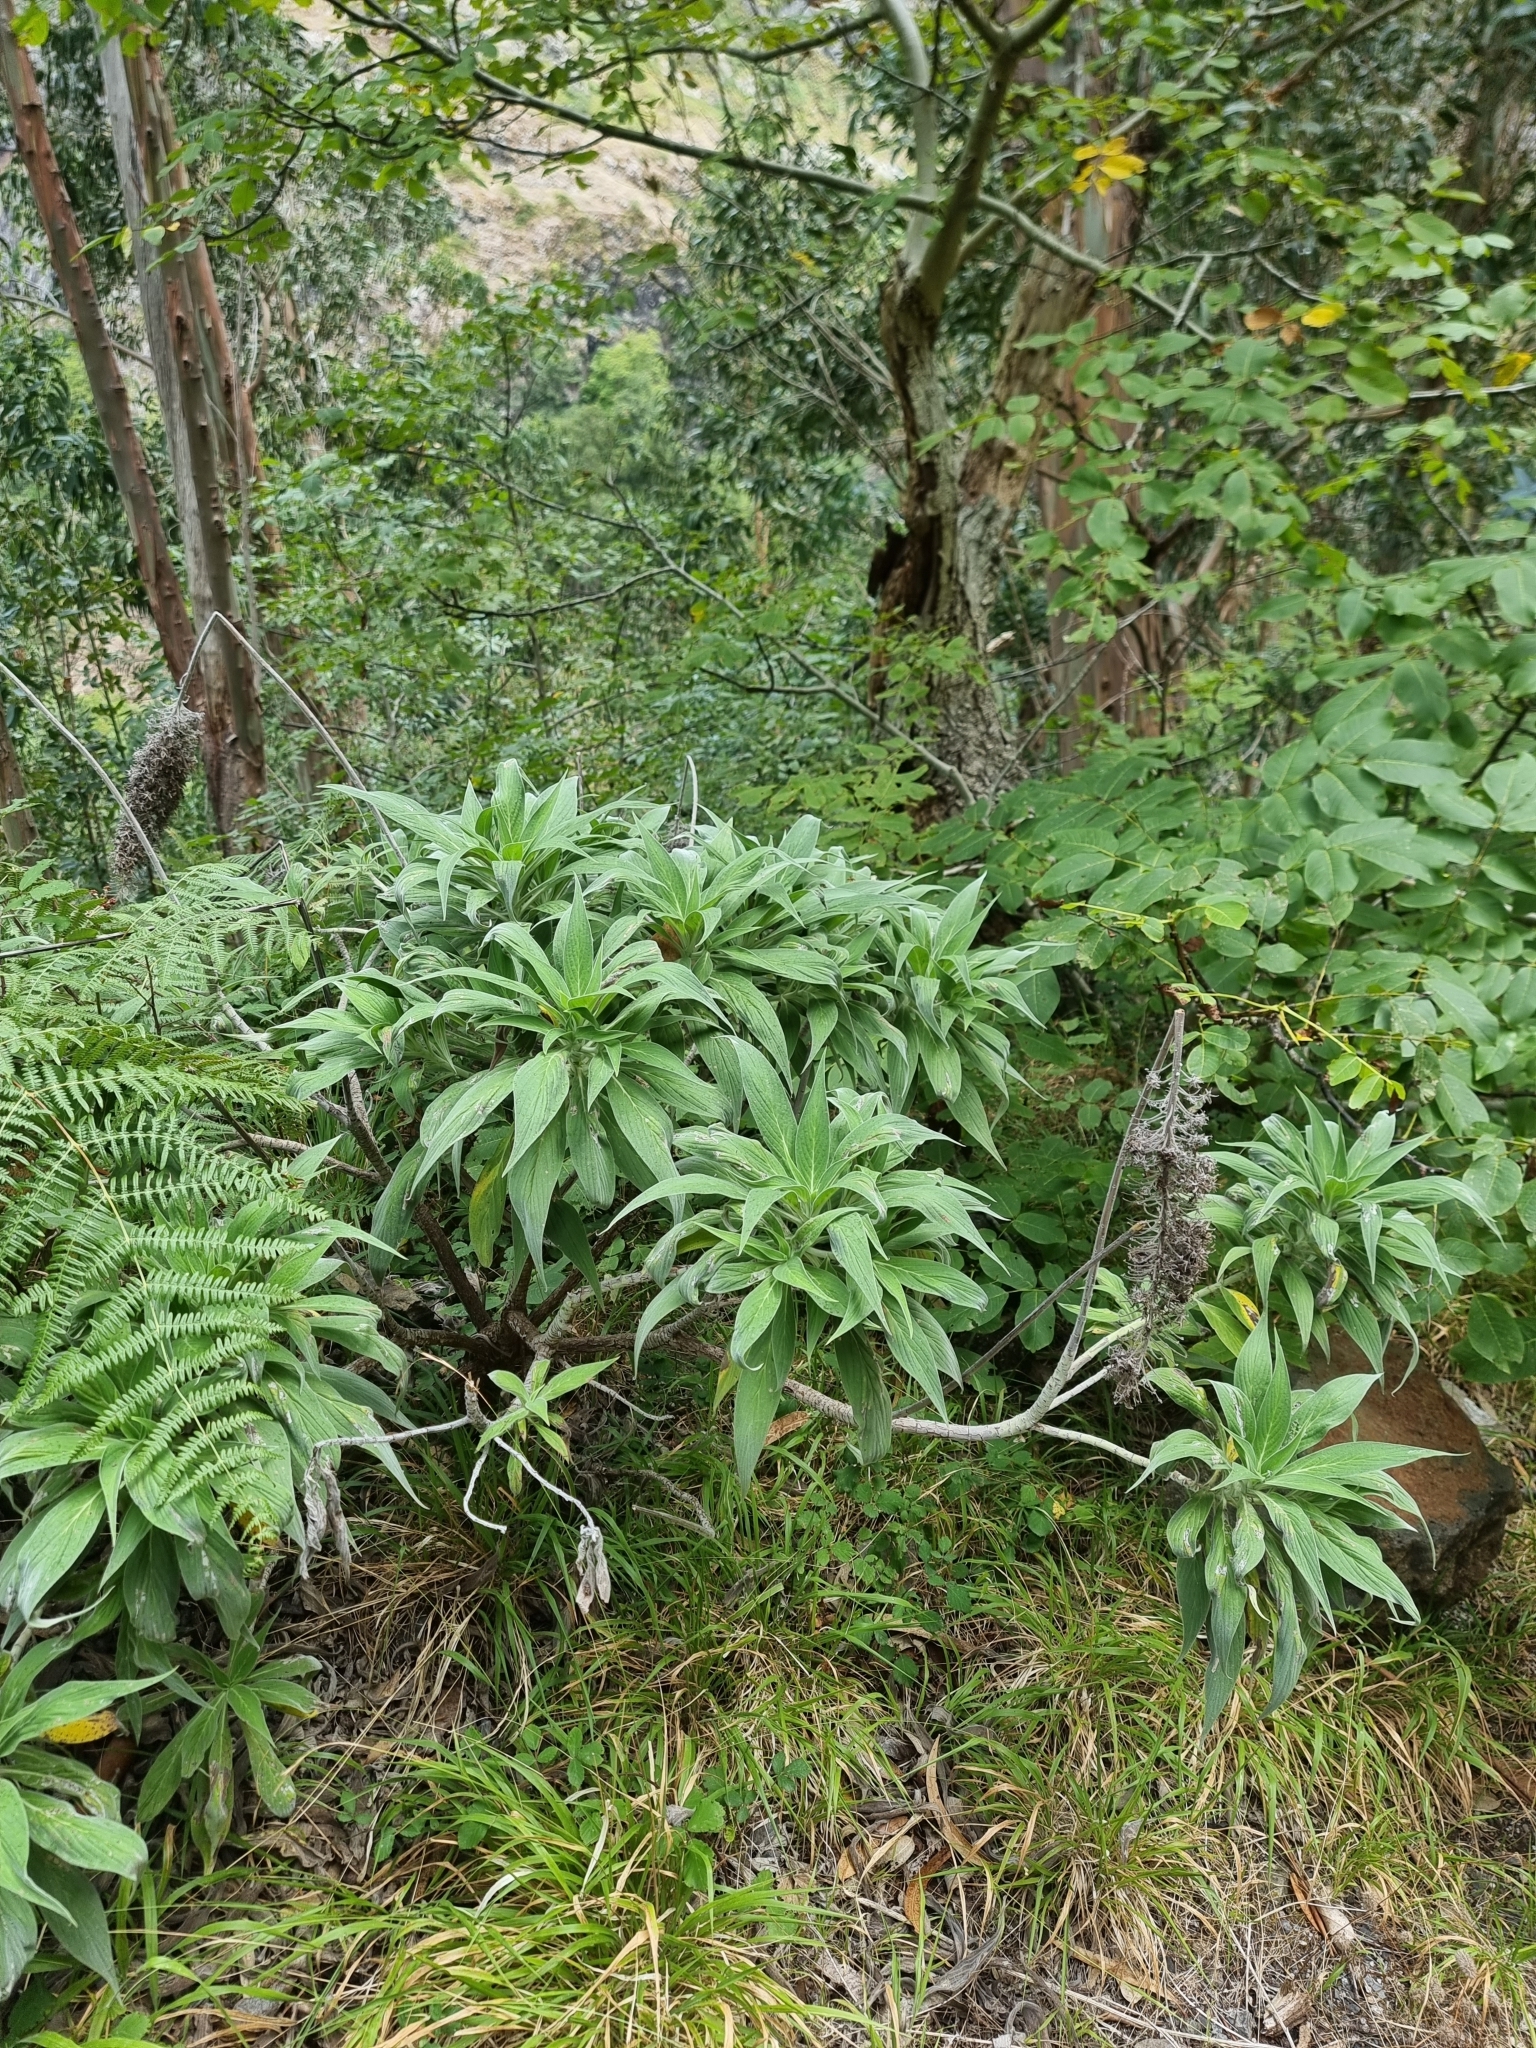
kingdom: Plantae
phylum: Tracheophyta
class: Magnoliopsida
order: Boraginales
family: Boraginaceae
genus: Echium
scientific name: Echium candicans
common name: Pride of madeira
